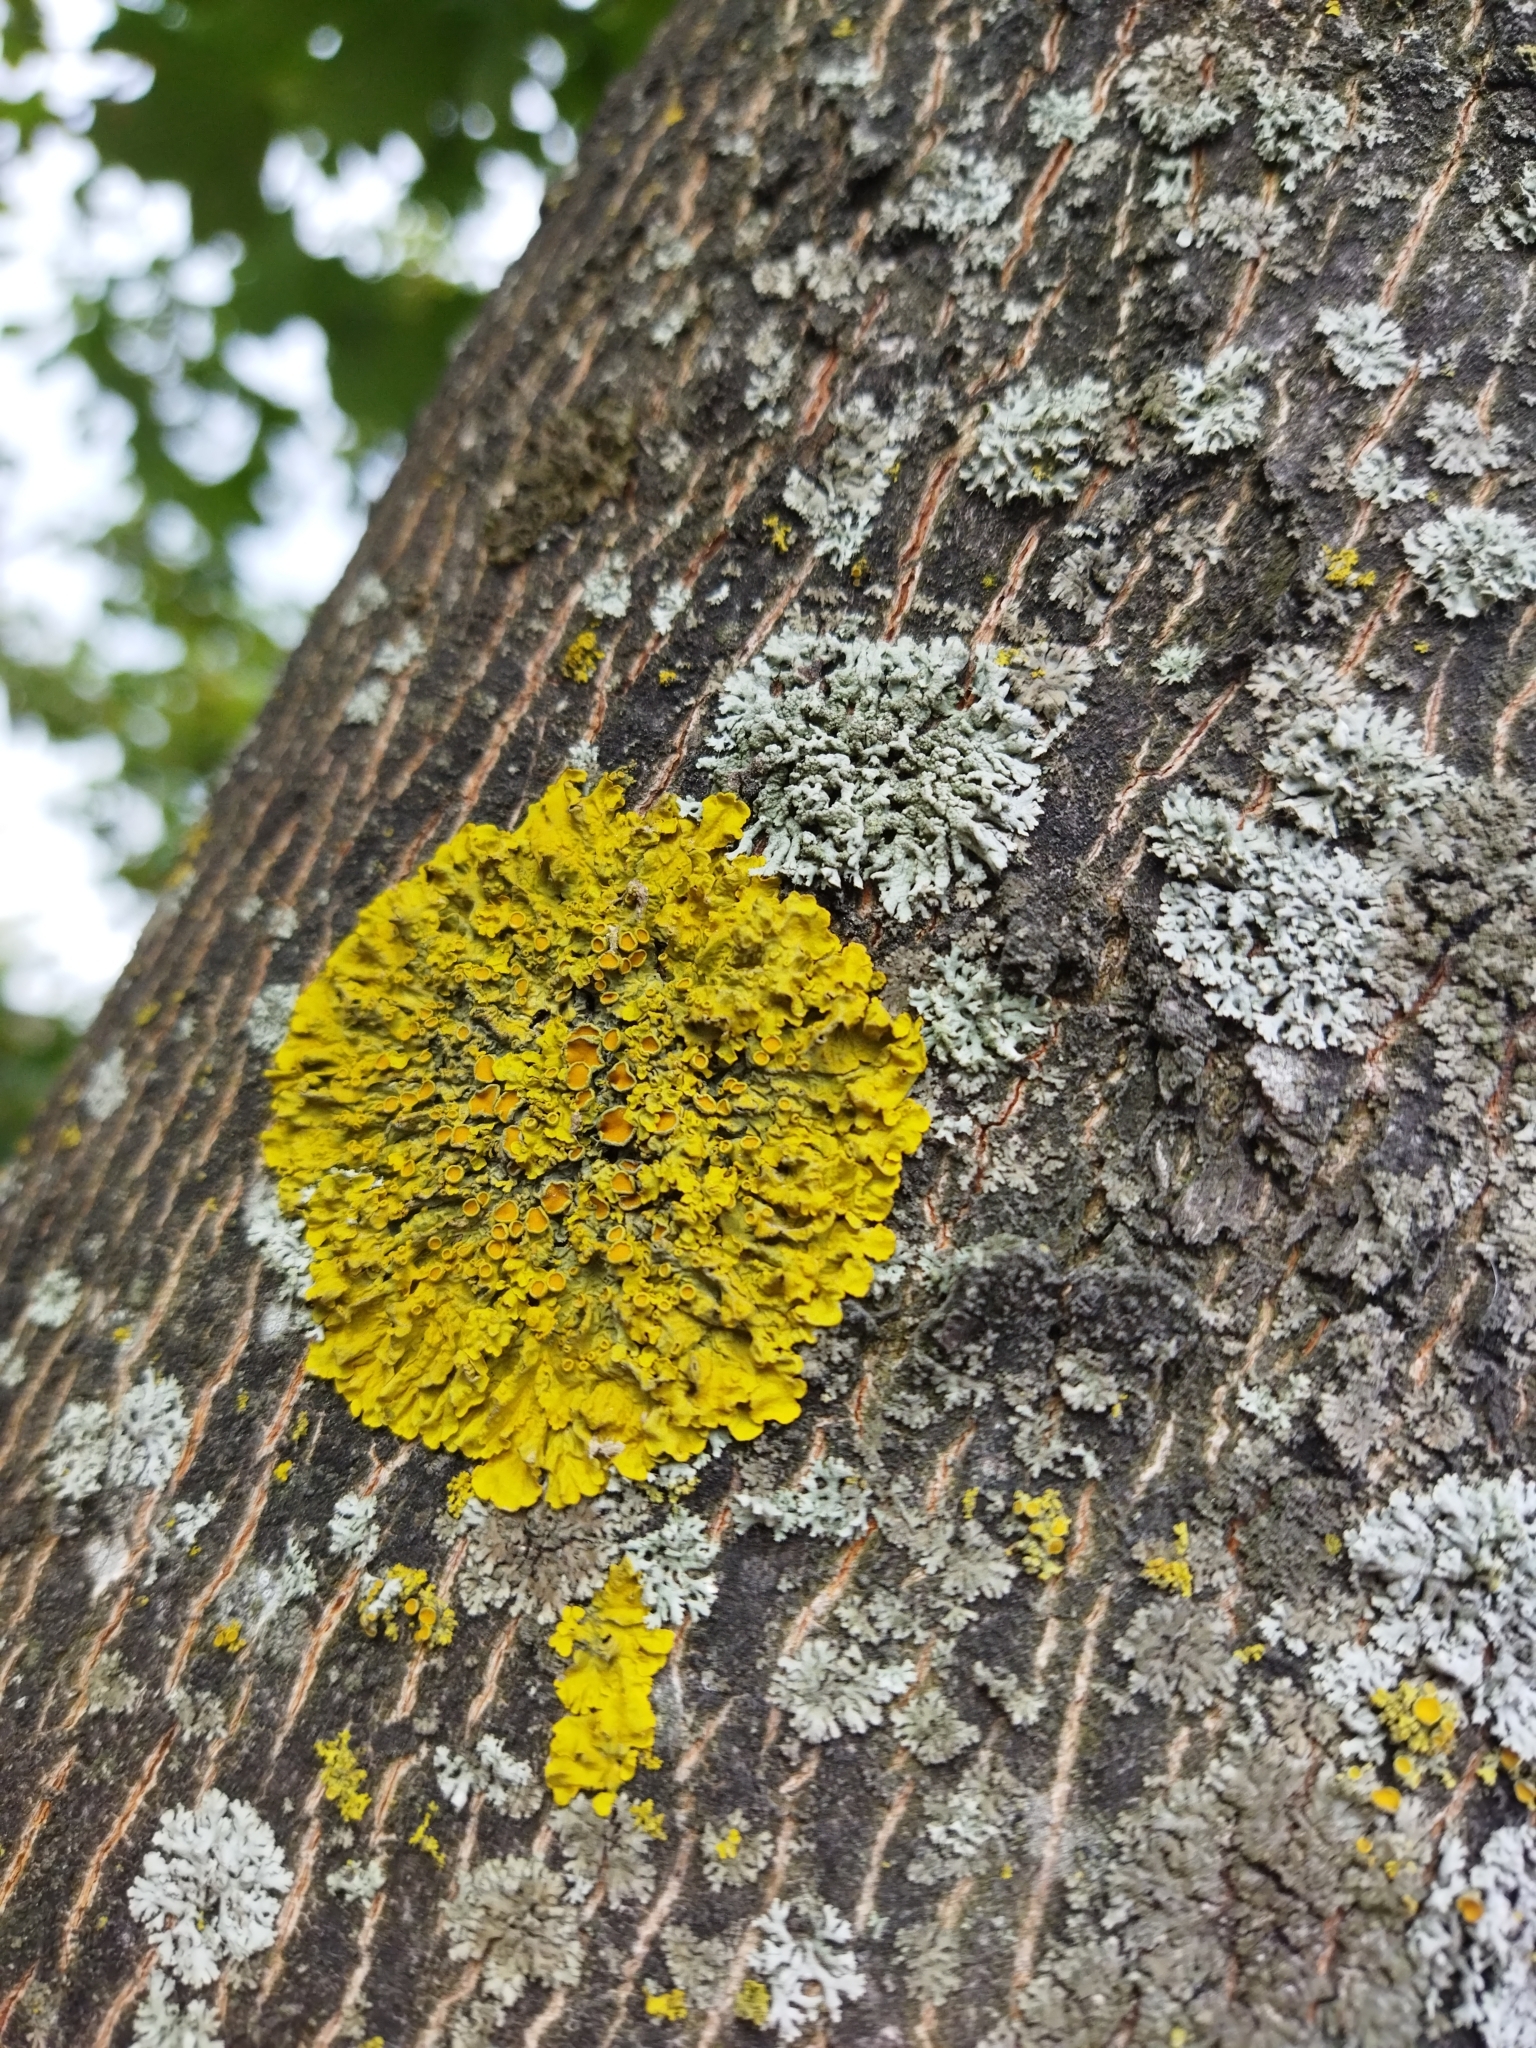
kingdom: Fungi
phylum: Ascomycota
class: Lecanoromycetes
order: Teloschistales
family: Teloschistaceae
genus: Xanthoria
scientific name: Xanthoria parietina
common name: Common orange lichen
